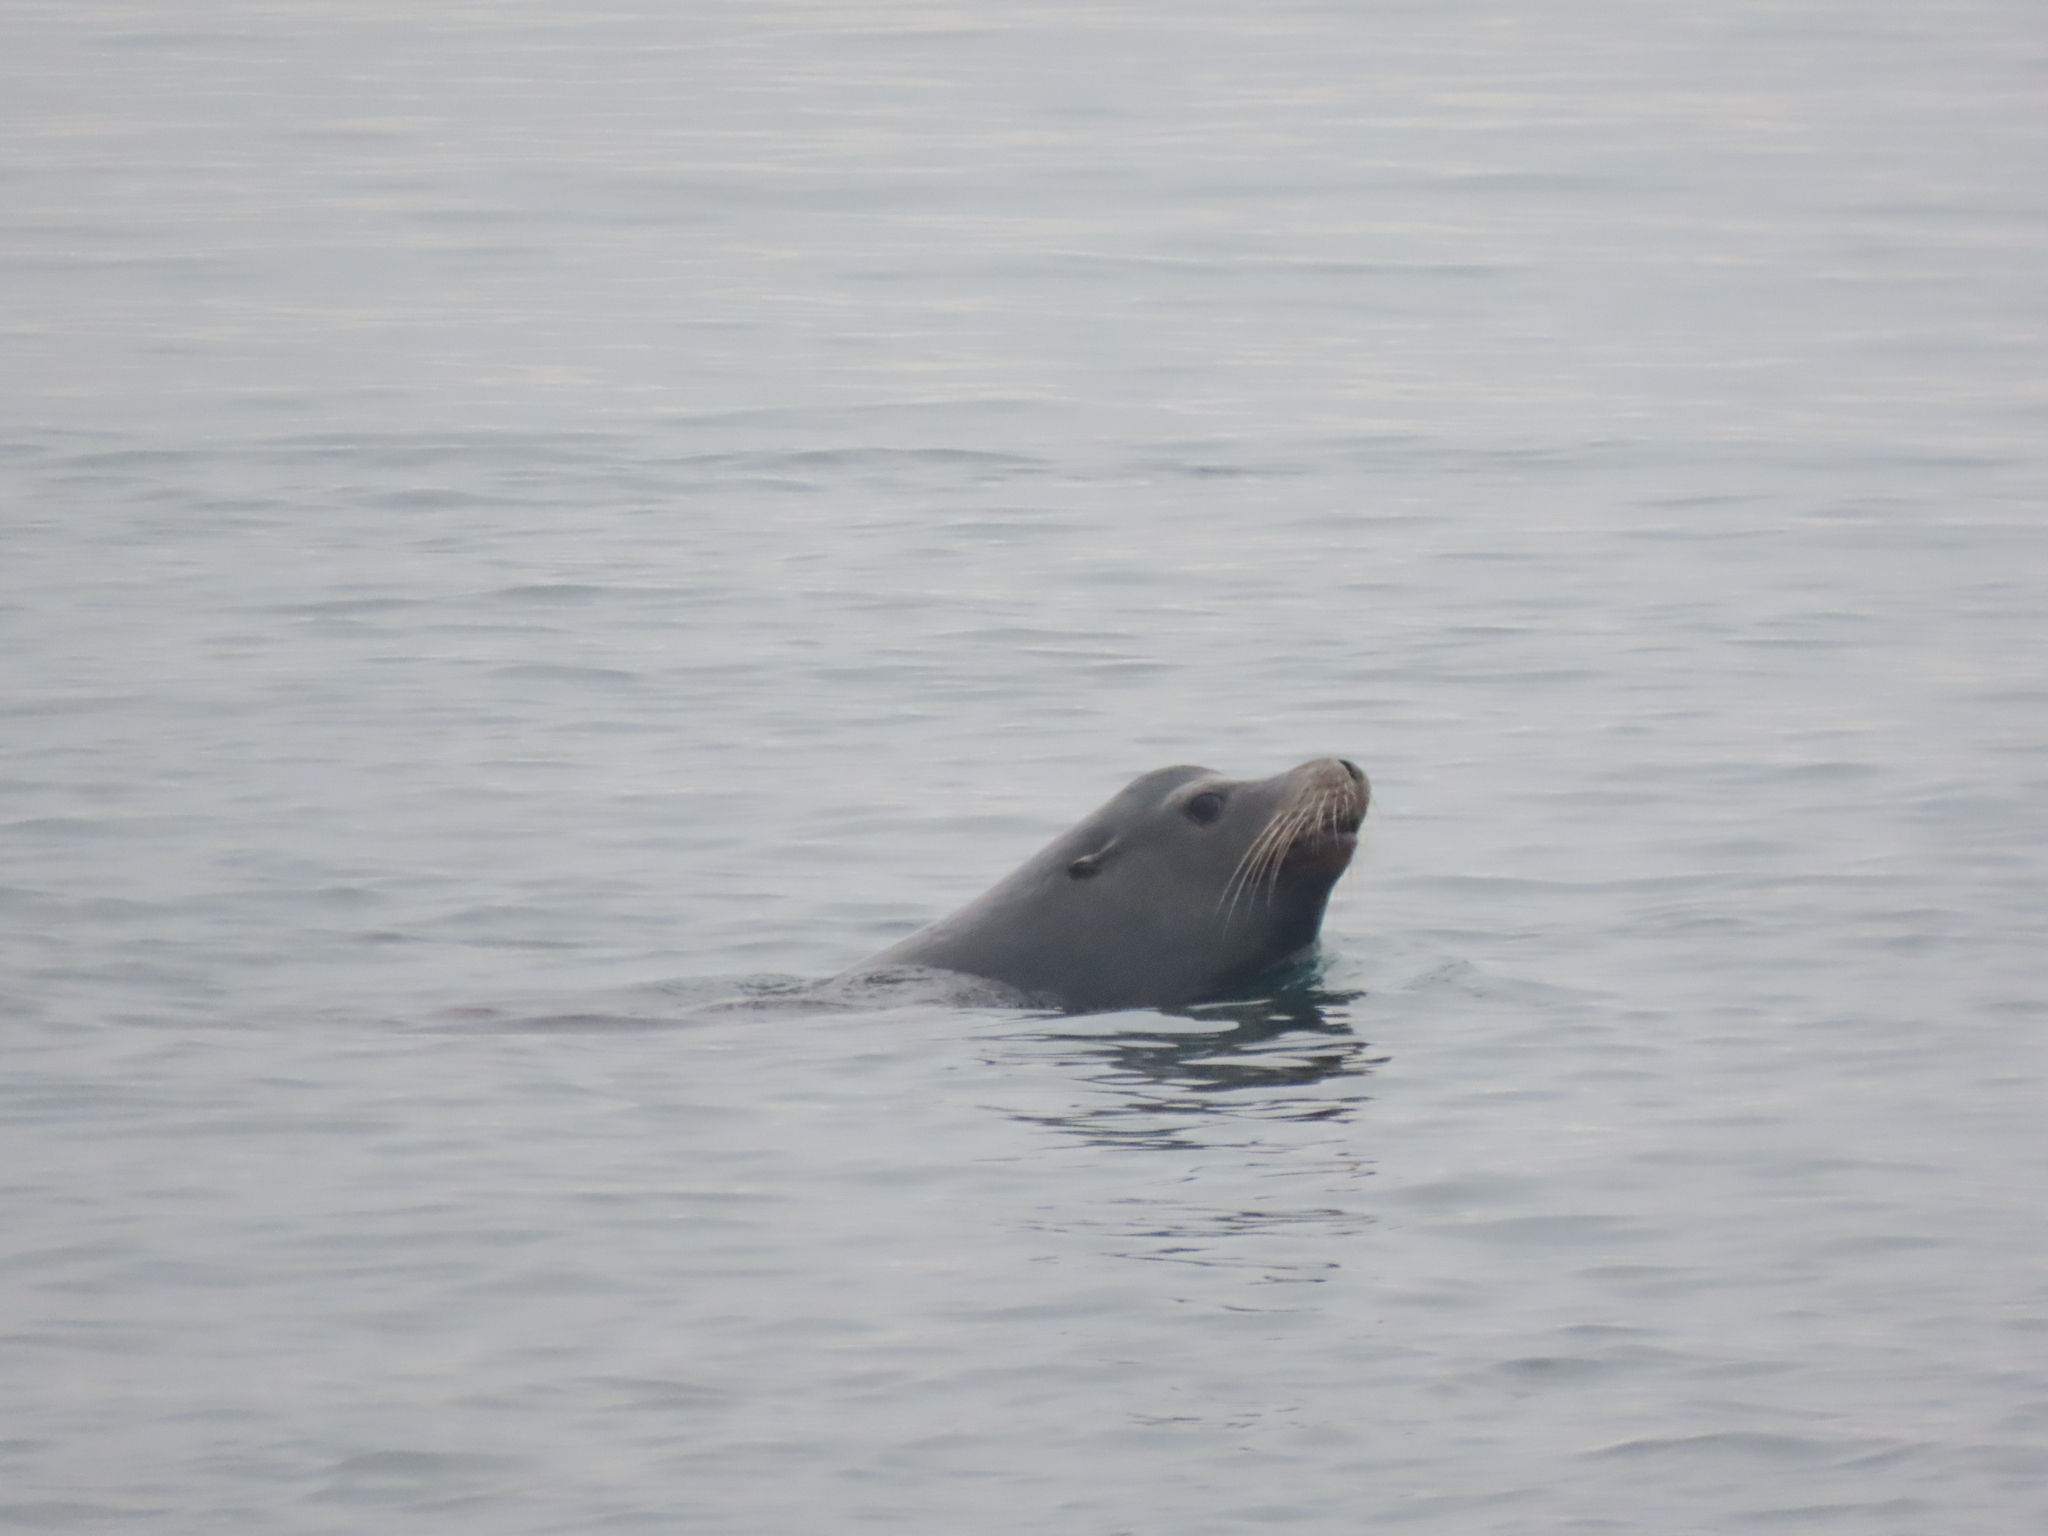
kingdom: Animalia
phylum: Chordata
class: Mammalia
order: Carnivora
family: Otariidae
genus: Zalophus
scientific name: Zalophus californianus
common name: California sea lion
